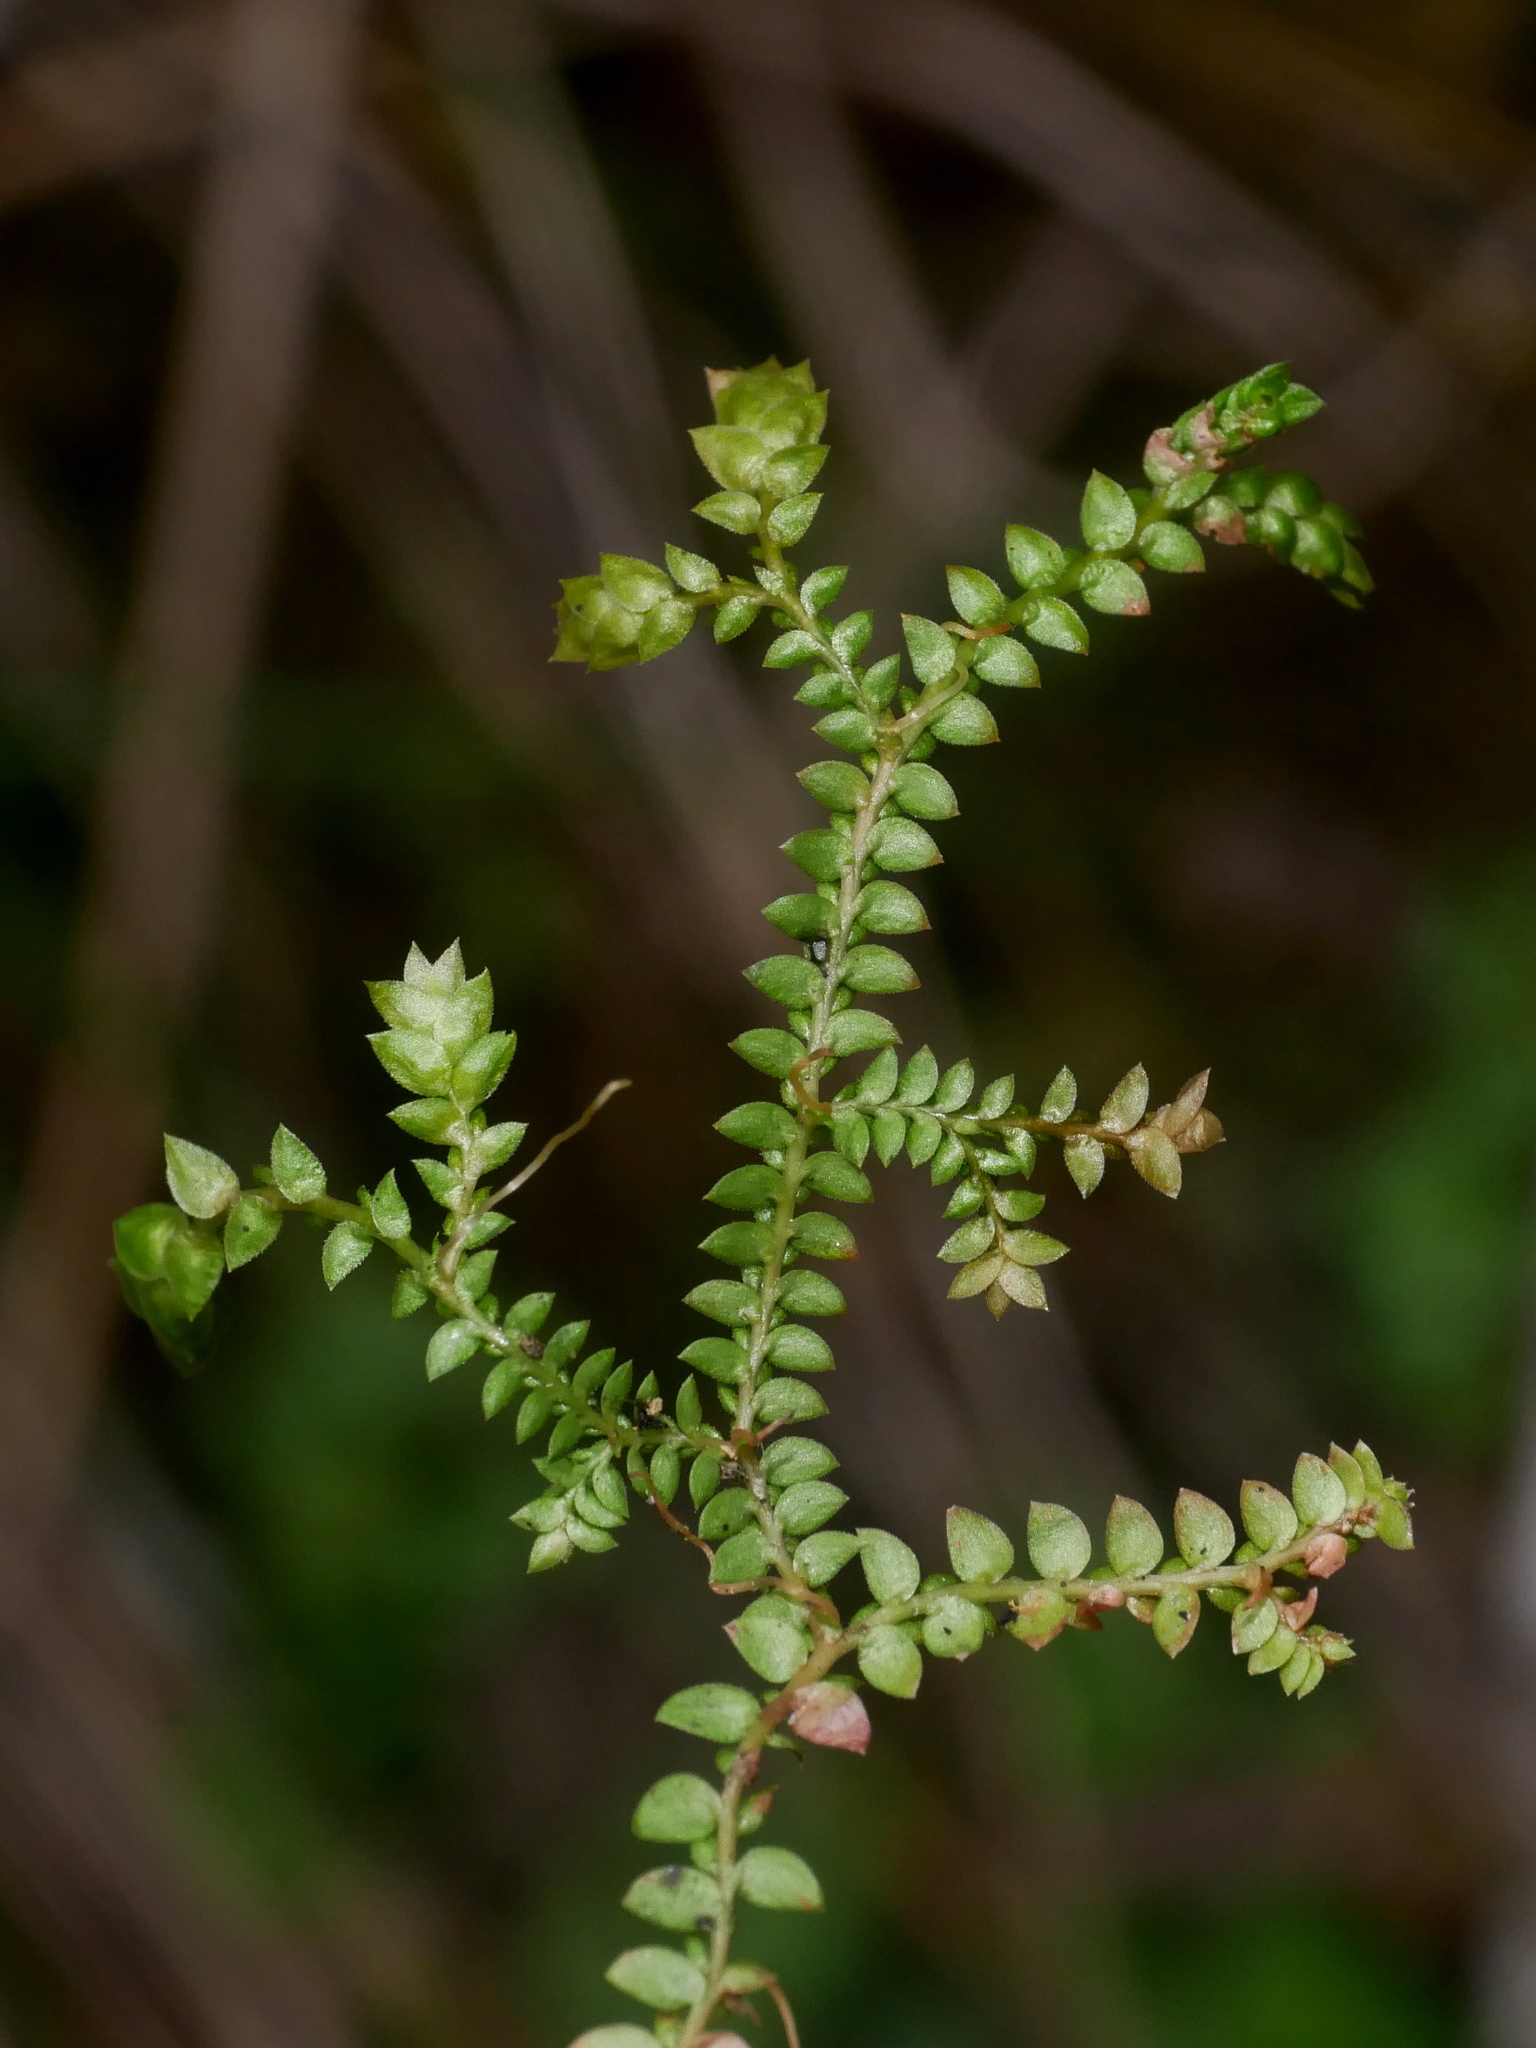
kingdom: Plantae
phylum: Tracheophyta
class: Lycopodiopsida
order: Selaginellales
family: Selaginellaceae
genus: Selaginella
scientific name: Selaginella pseudonipponica
